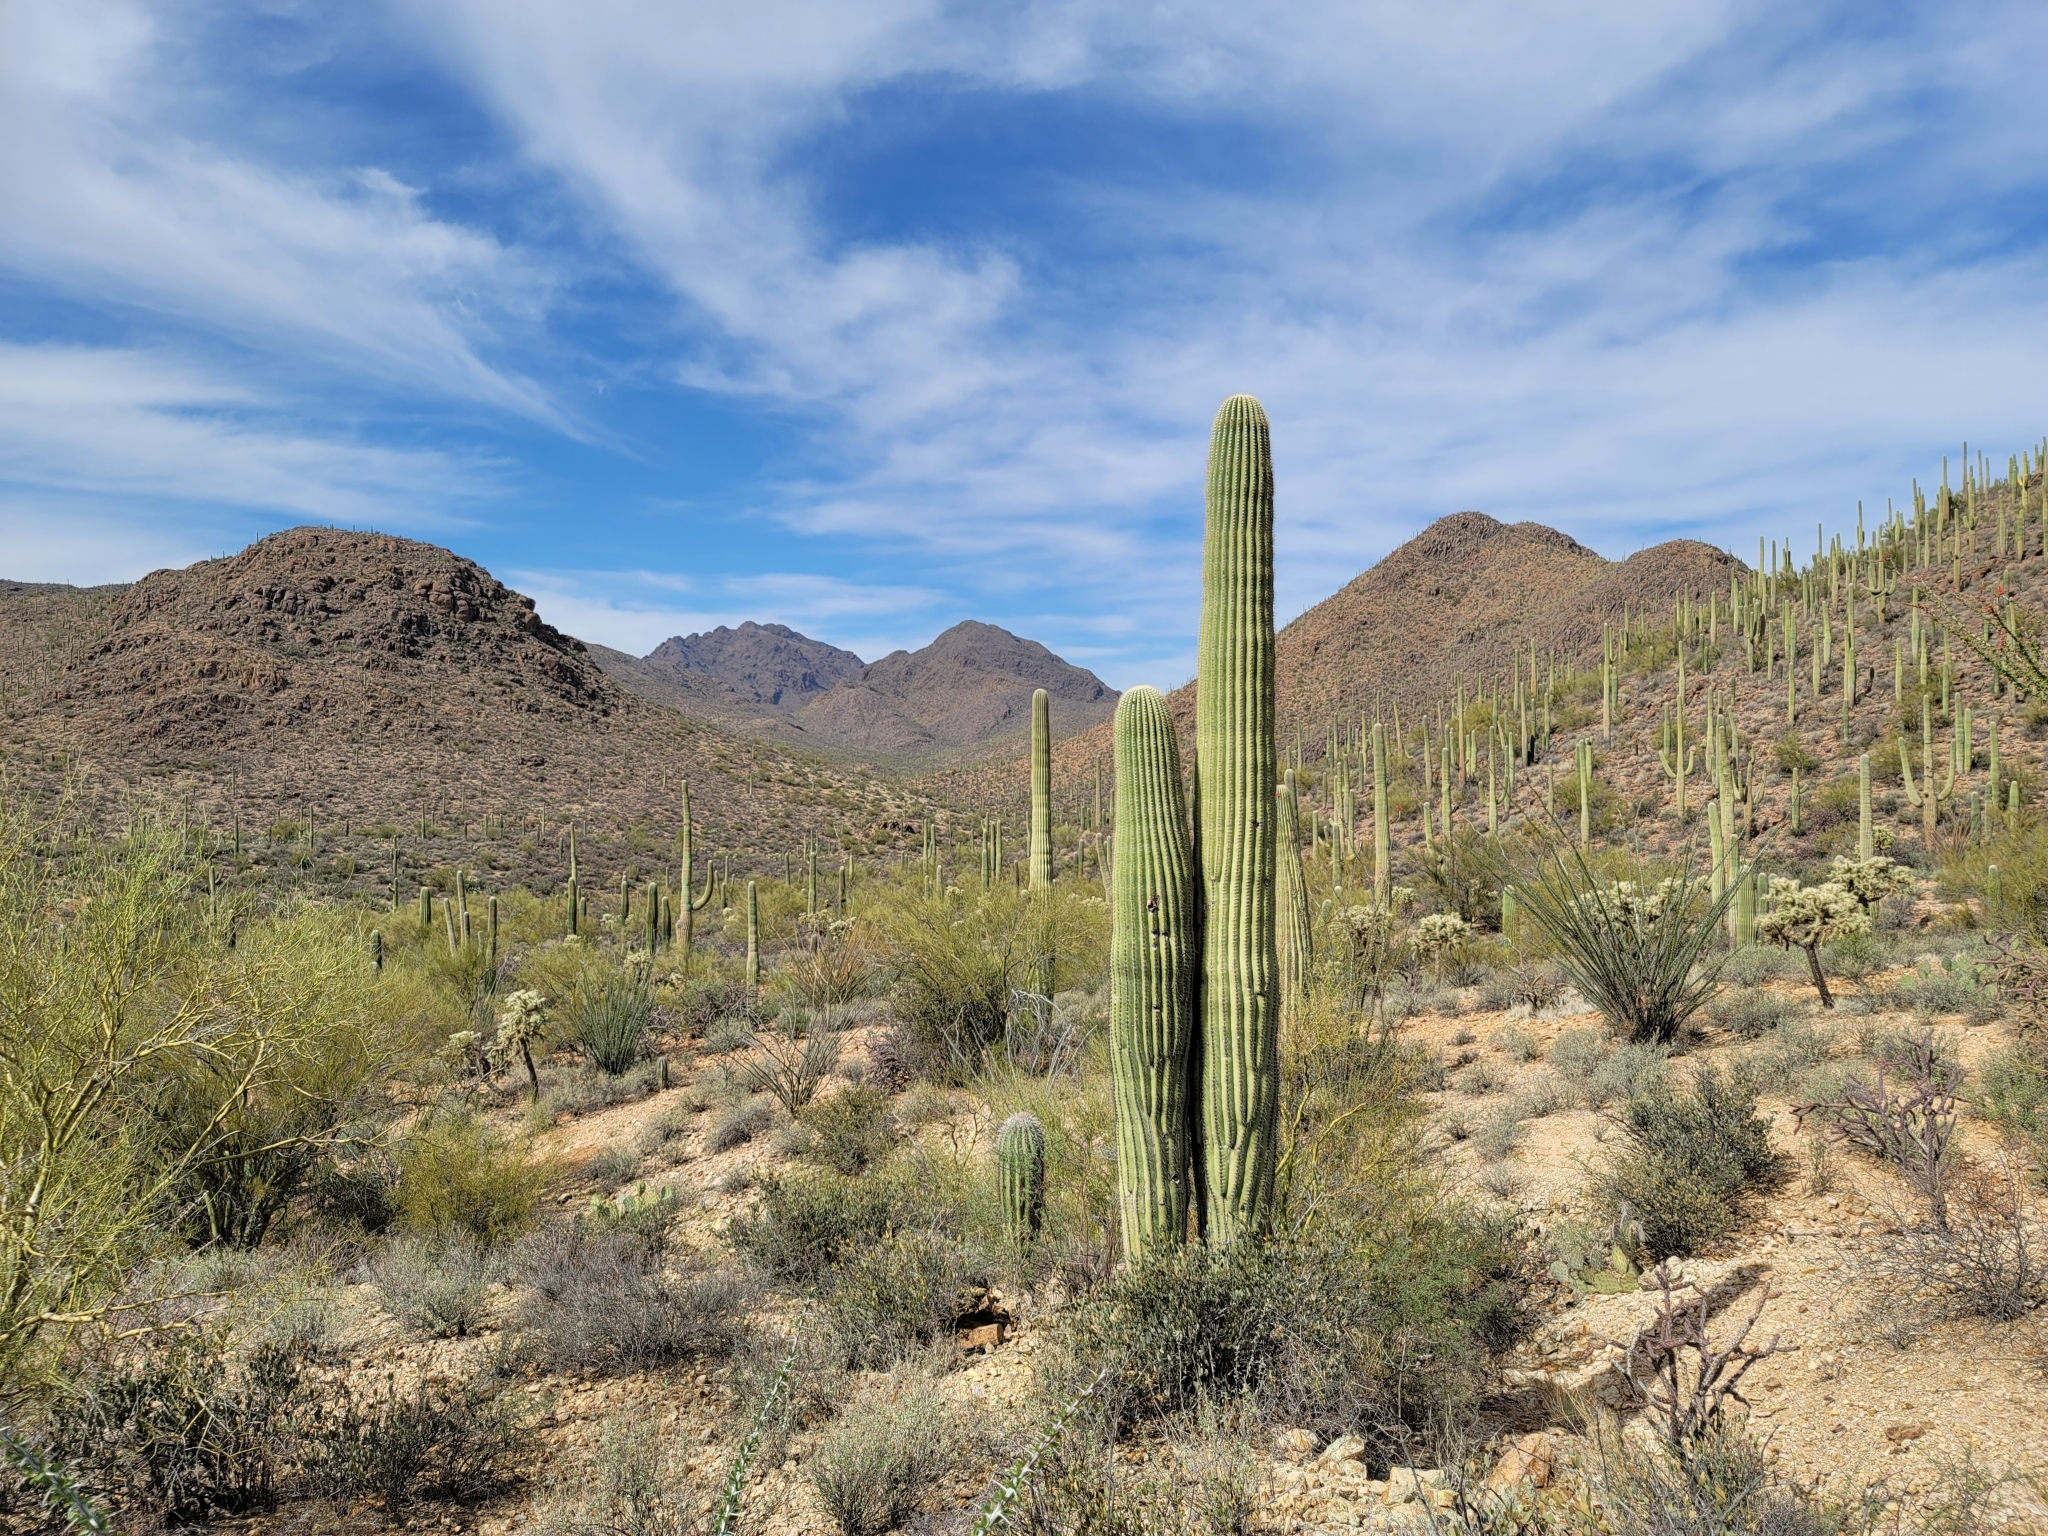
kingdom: Plantae
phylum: Tracheophyta
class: Magnoliopsida
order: Caryophyllales
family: Cactaceae
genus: Carnegiea
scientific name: Carnegiea gigantea
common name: Saguaro
